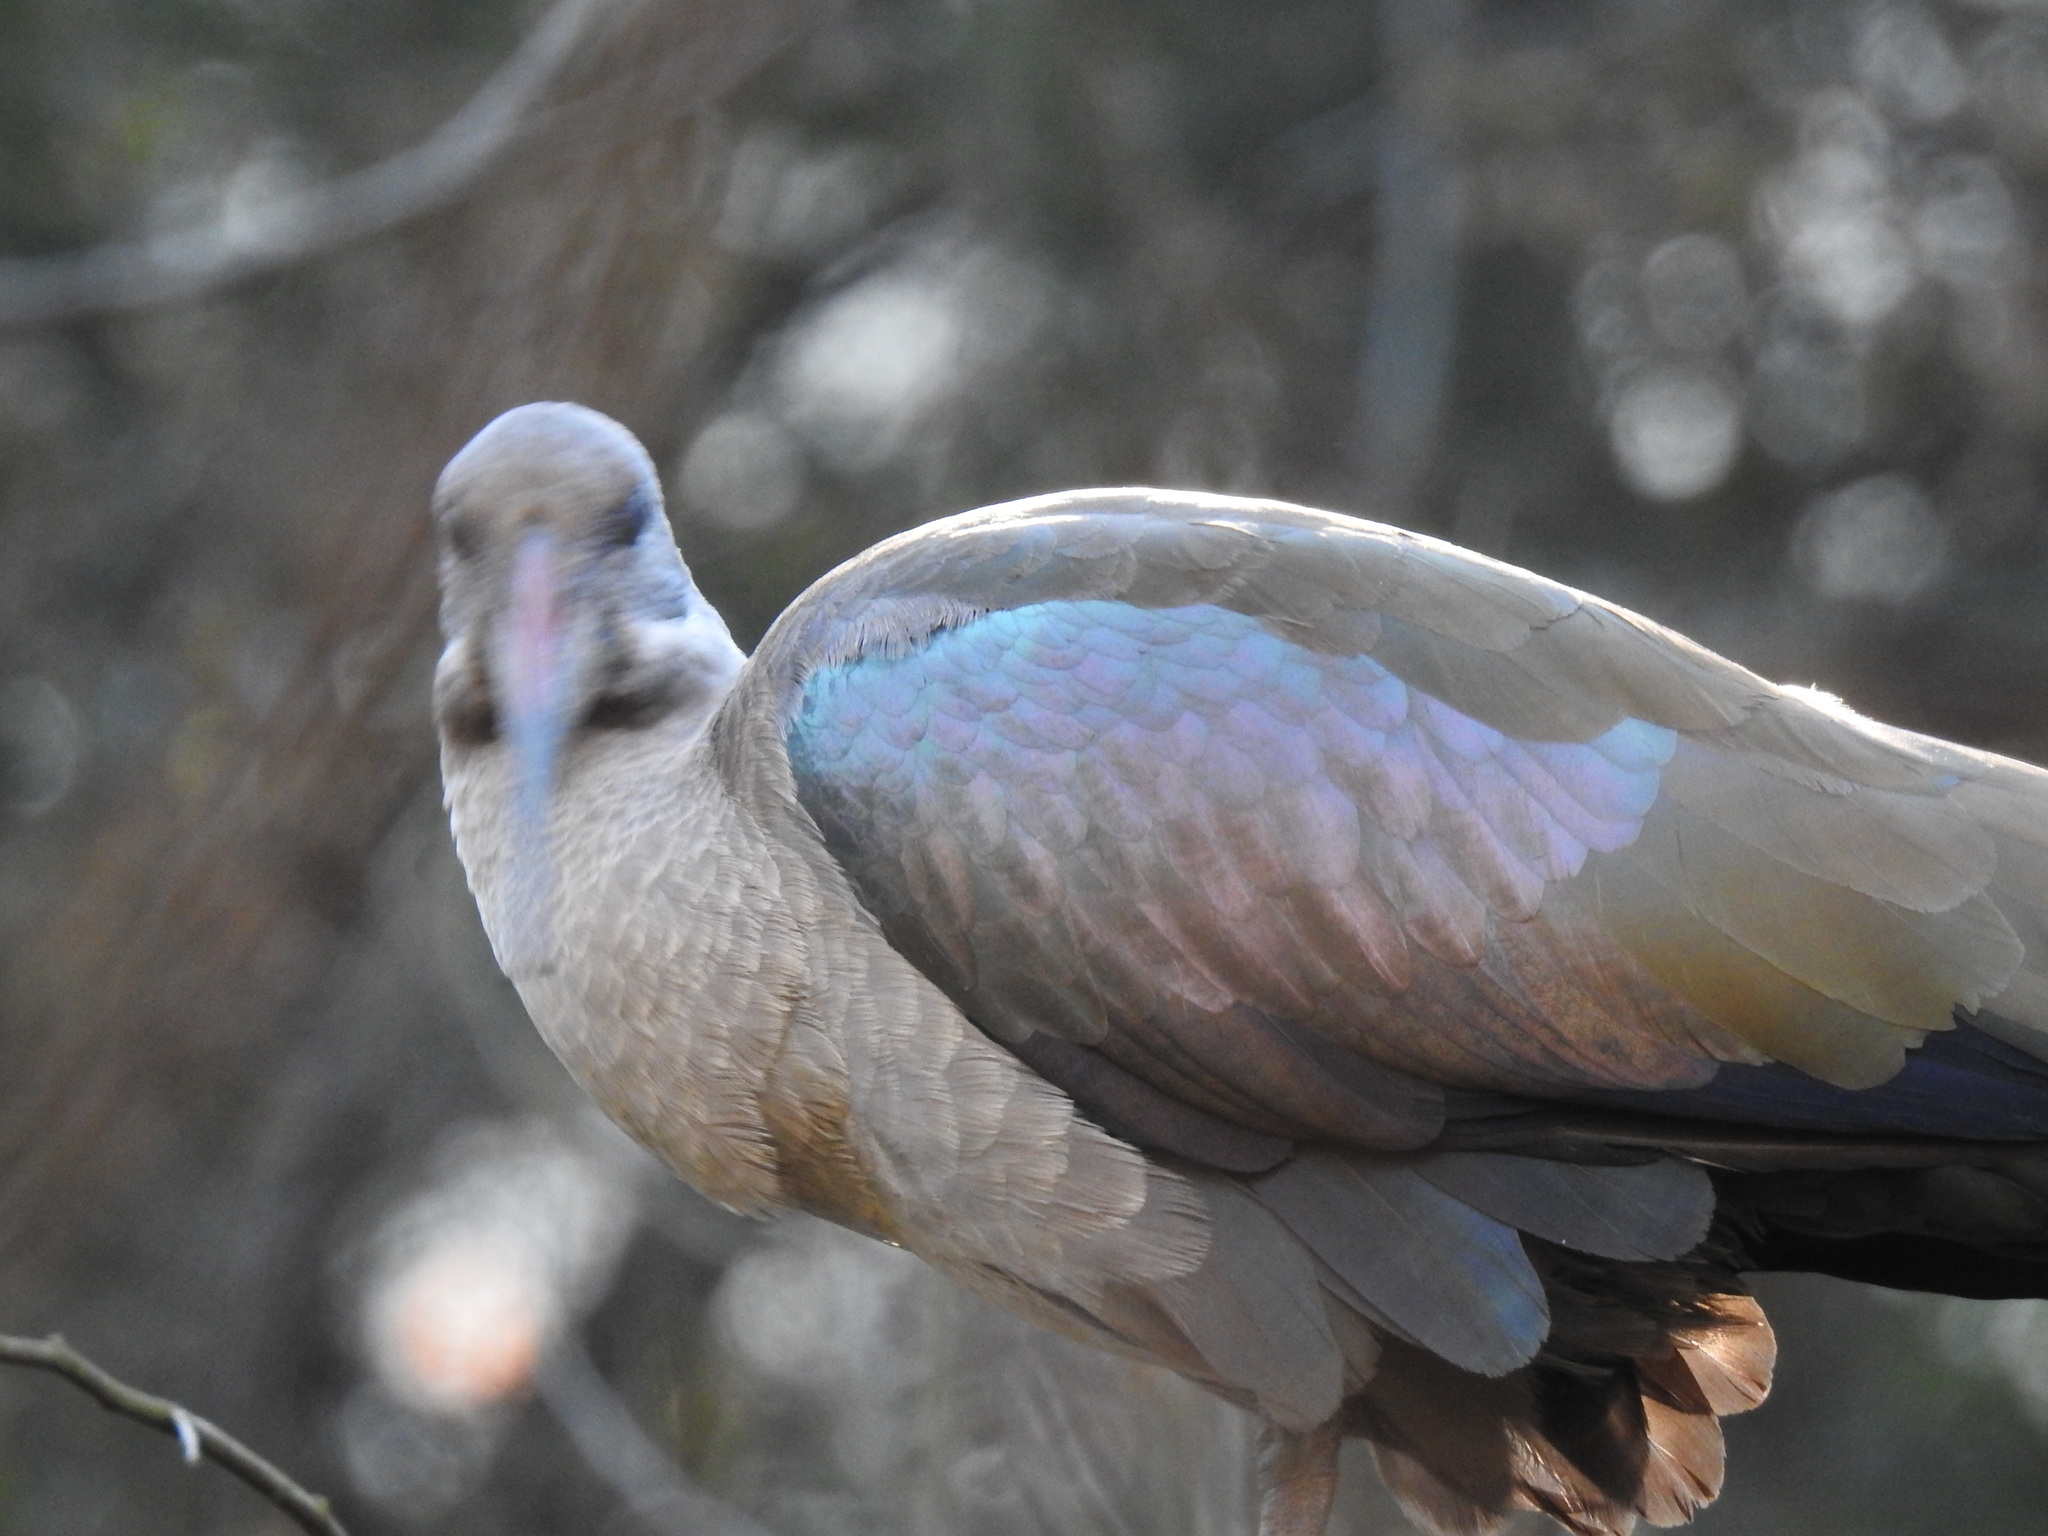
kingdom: Animalia
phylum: Chordata
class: Aves
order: Pelecaniformes
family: Threskiornithidae
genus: Bostrychia
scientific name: Bostrychia hagedash
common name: Hadada ibis
